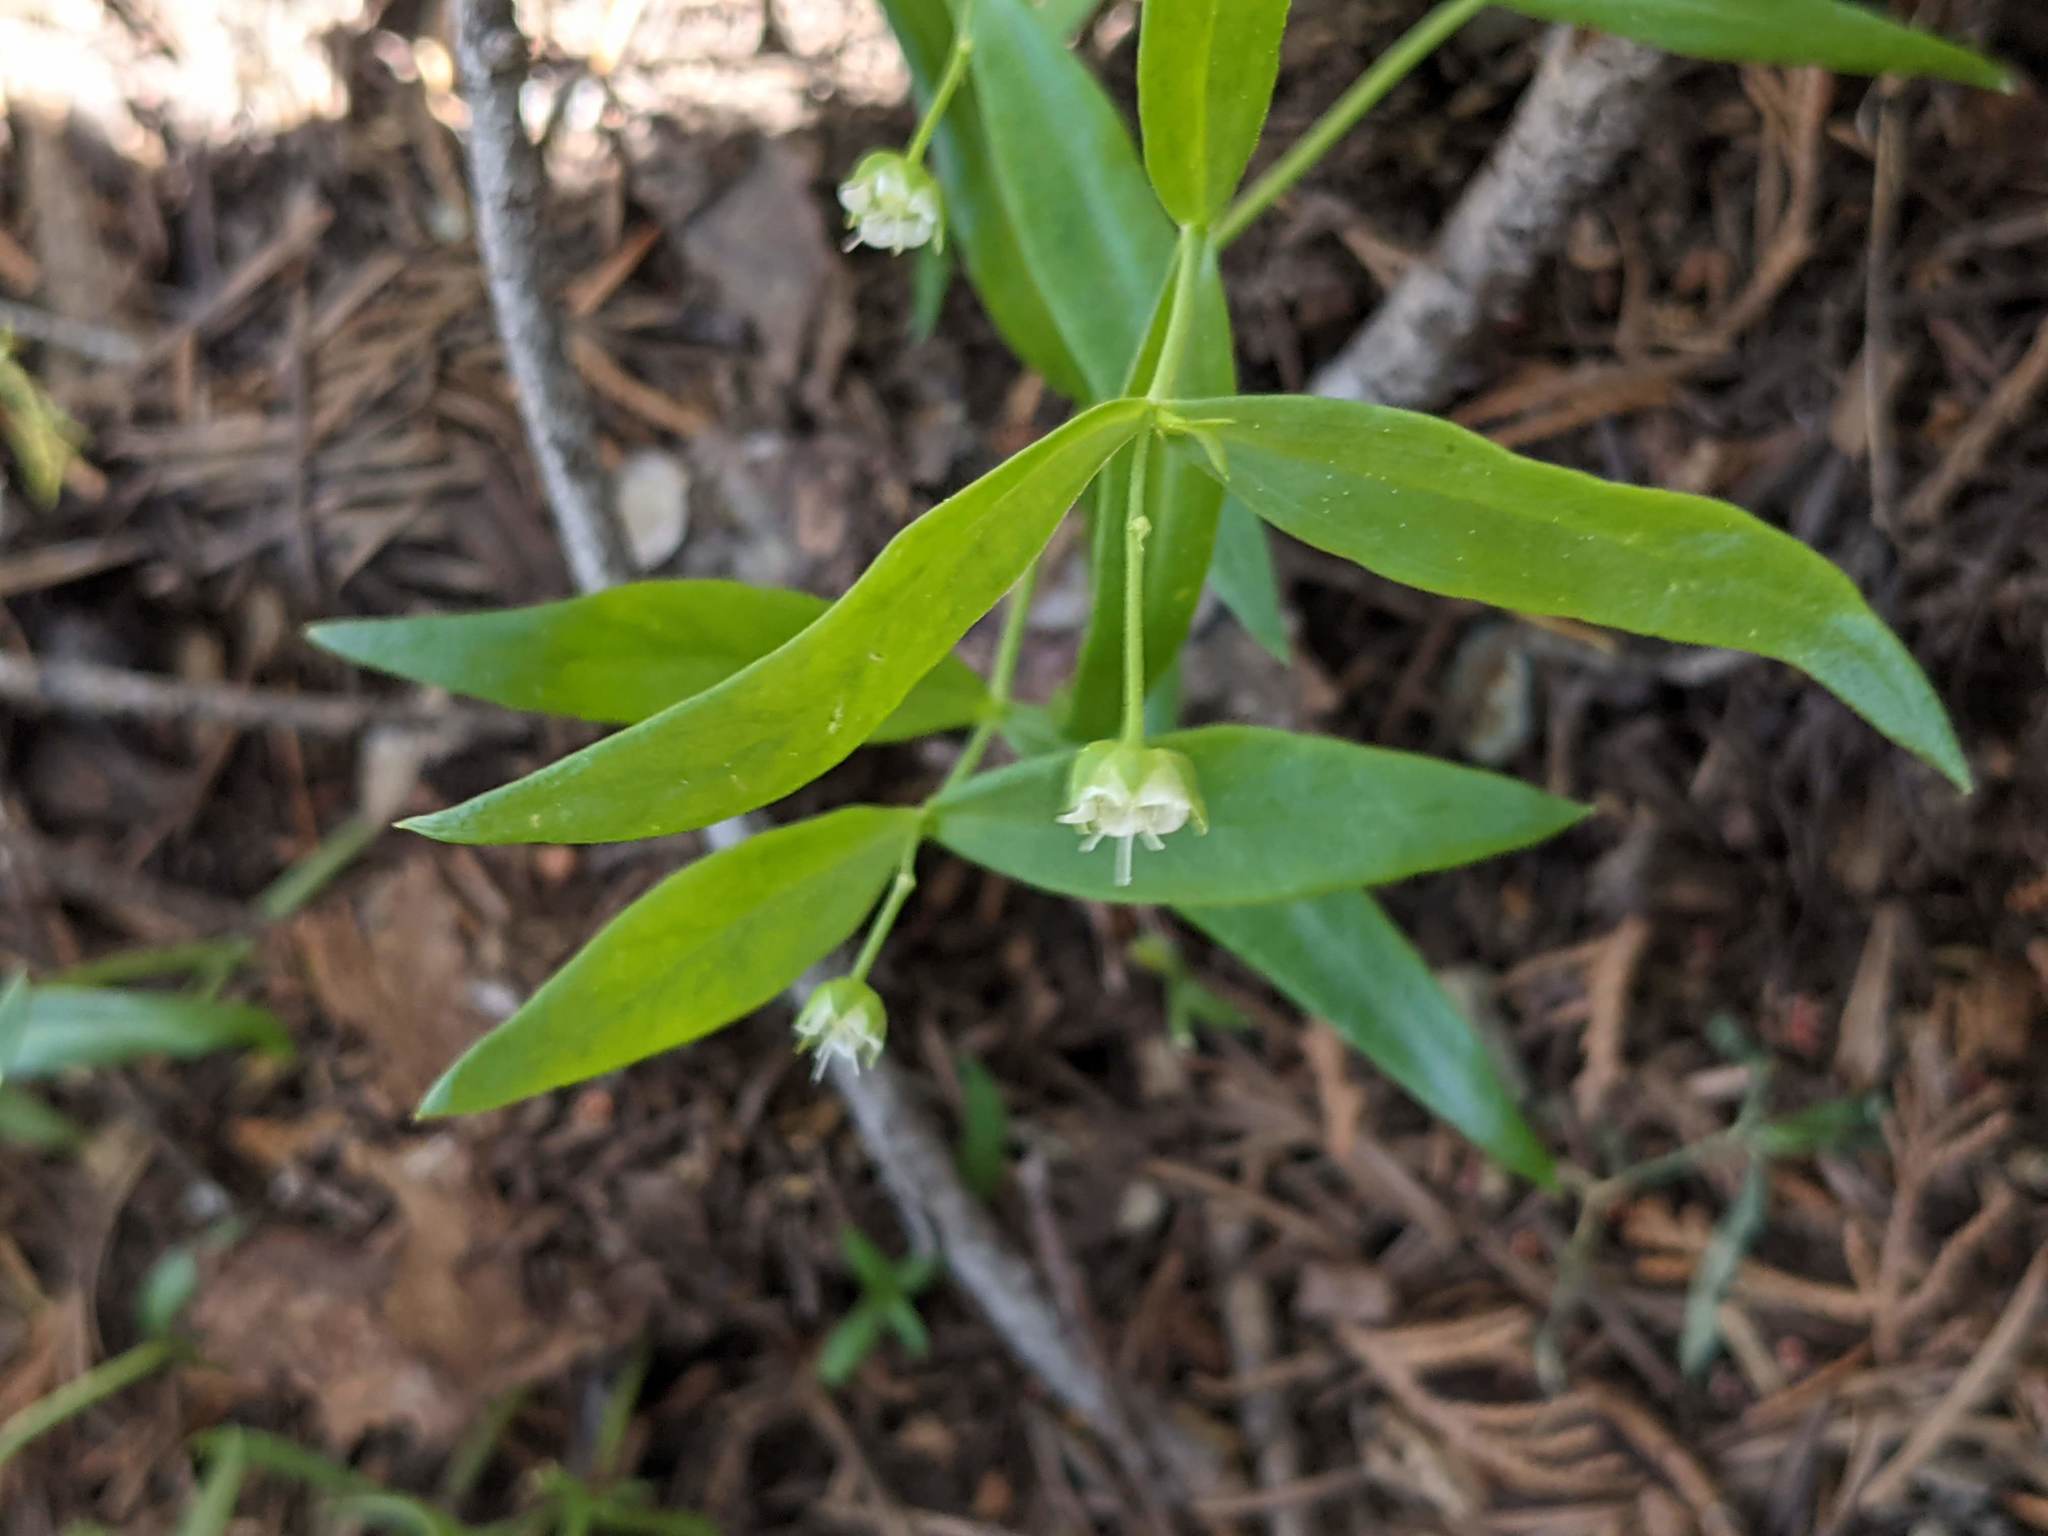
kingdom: Plantae
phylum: Tracheophyta
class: Magnoliopsida
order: Caryophyllales
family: Caryophyllaceae
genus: Moehringia
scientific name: Moehringia macrophylla
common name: Big-leaf sandwort
